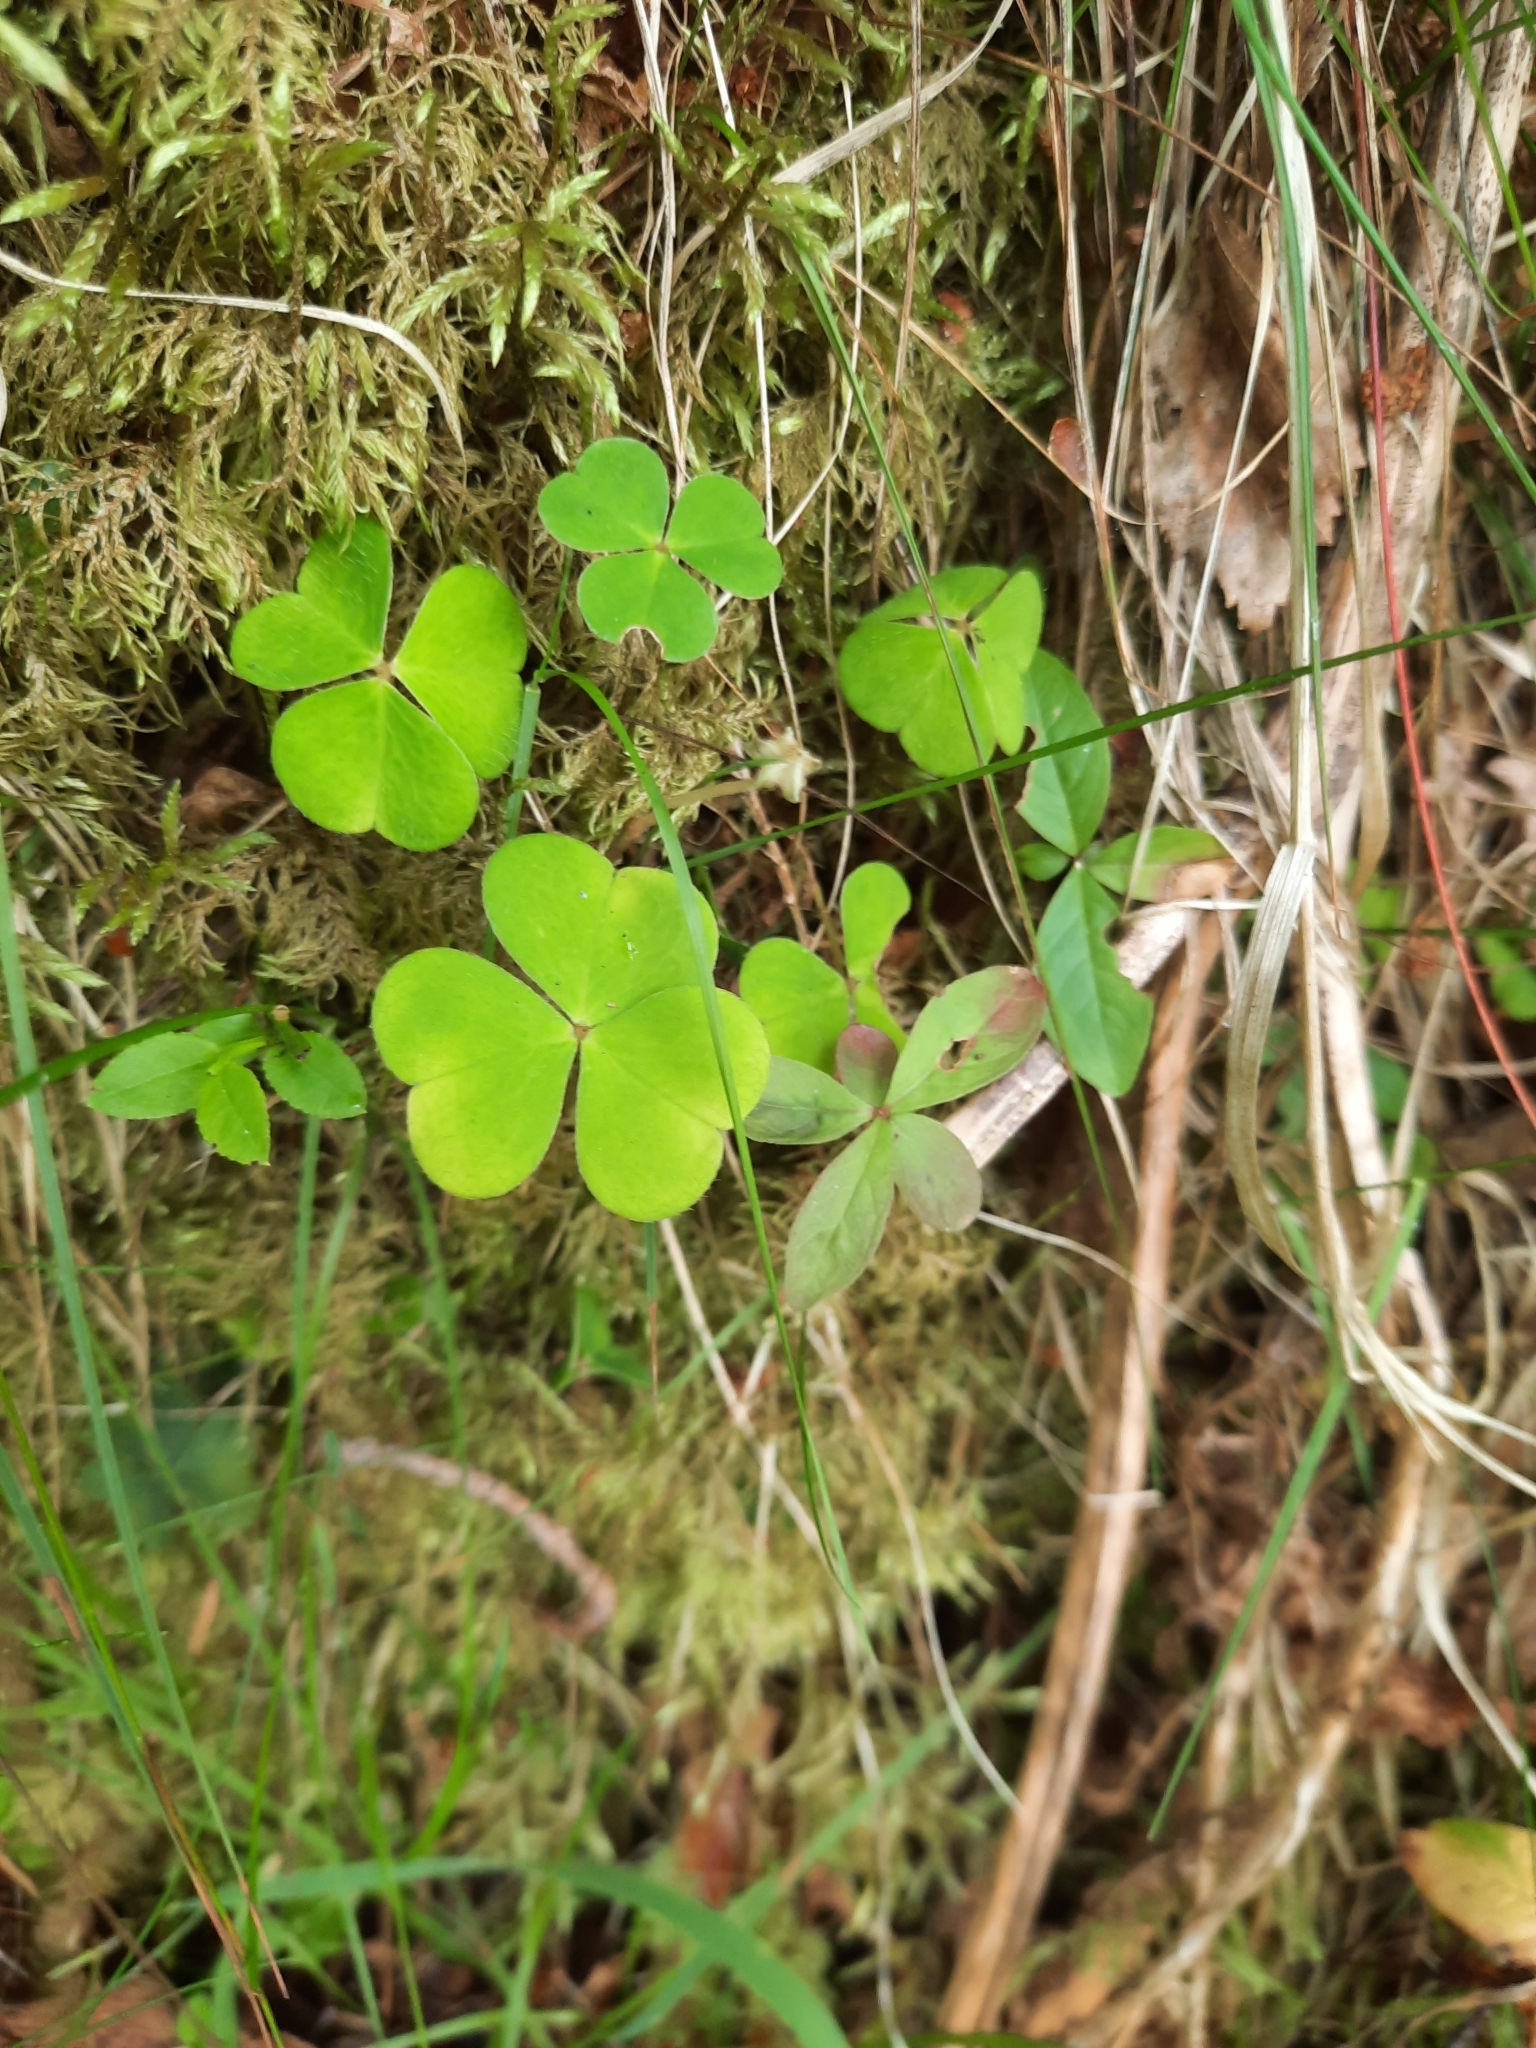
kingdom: Plantae
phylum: Tracheophyta
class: Magnoliopsida
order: Oxalidales
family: Oxalidaceae
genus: Oxalis
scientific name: Oxalis acetosella
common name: Wood-sorrel
